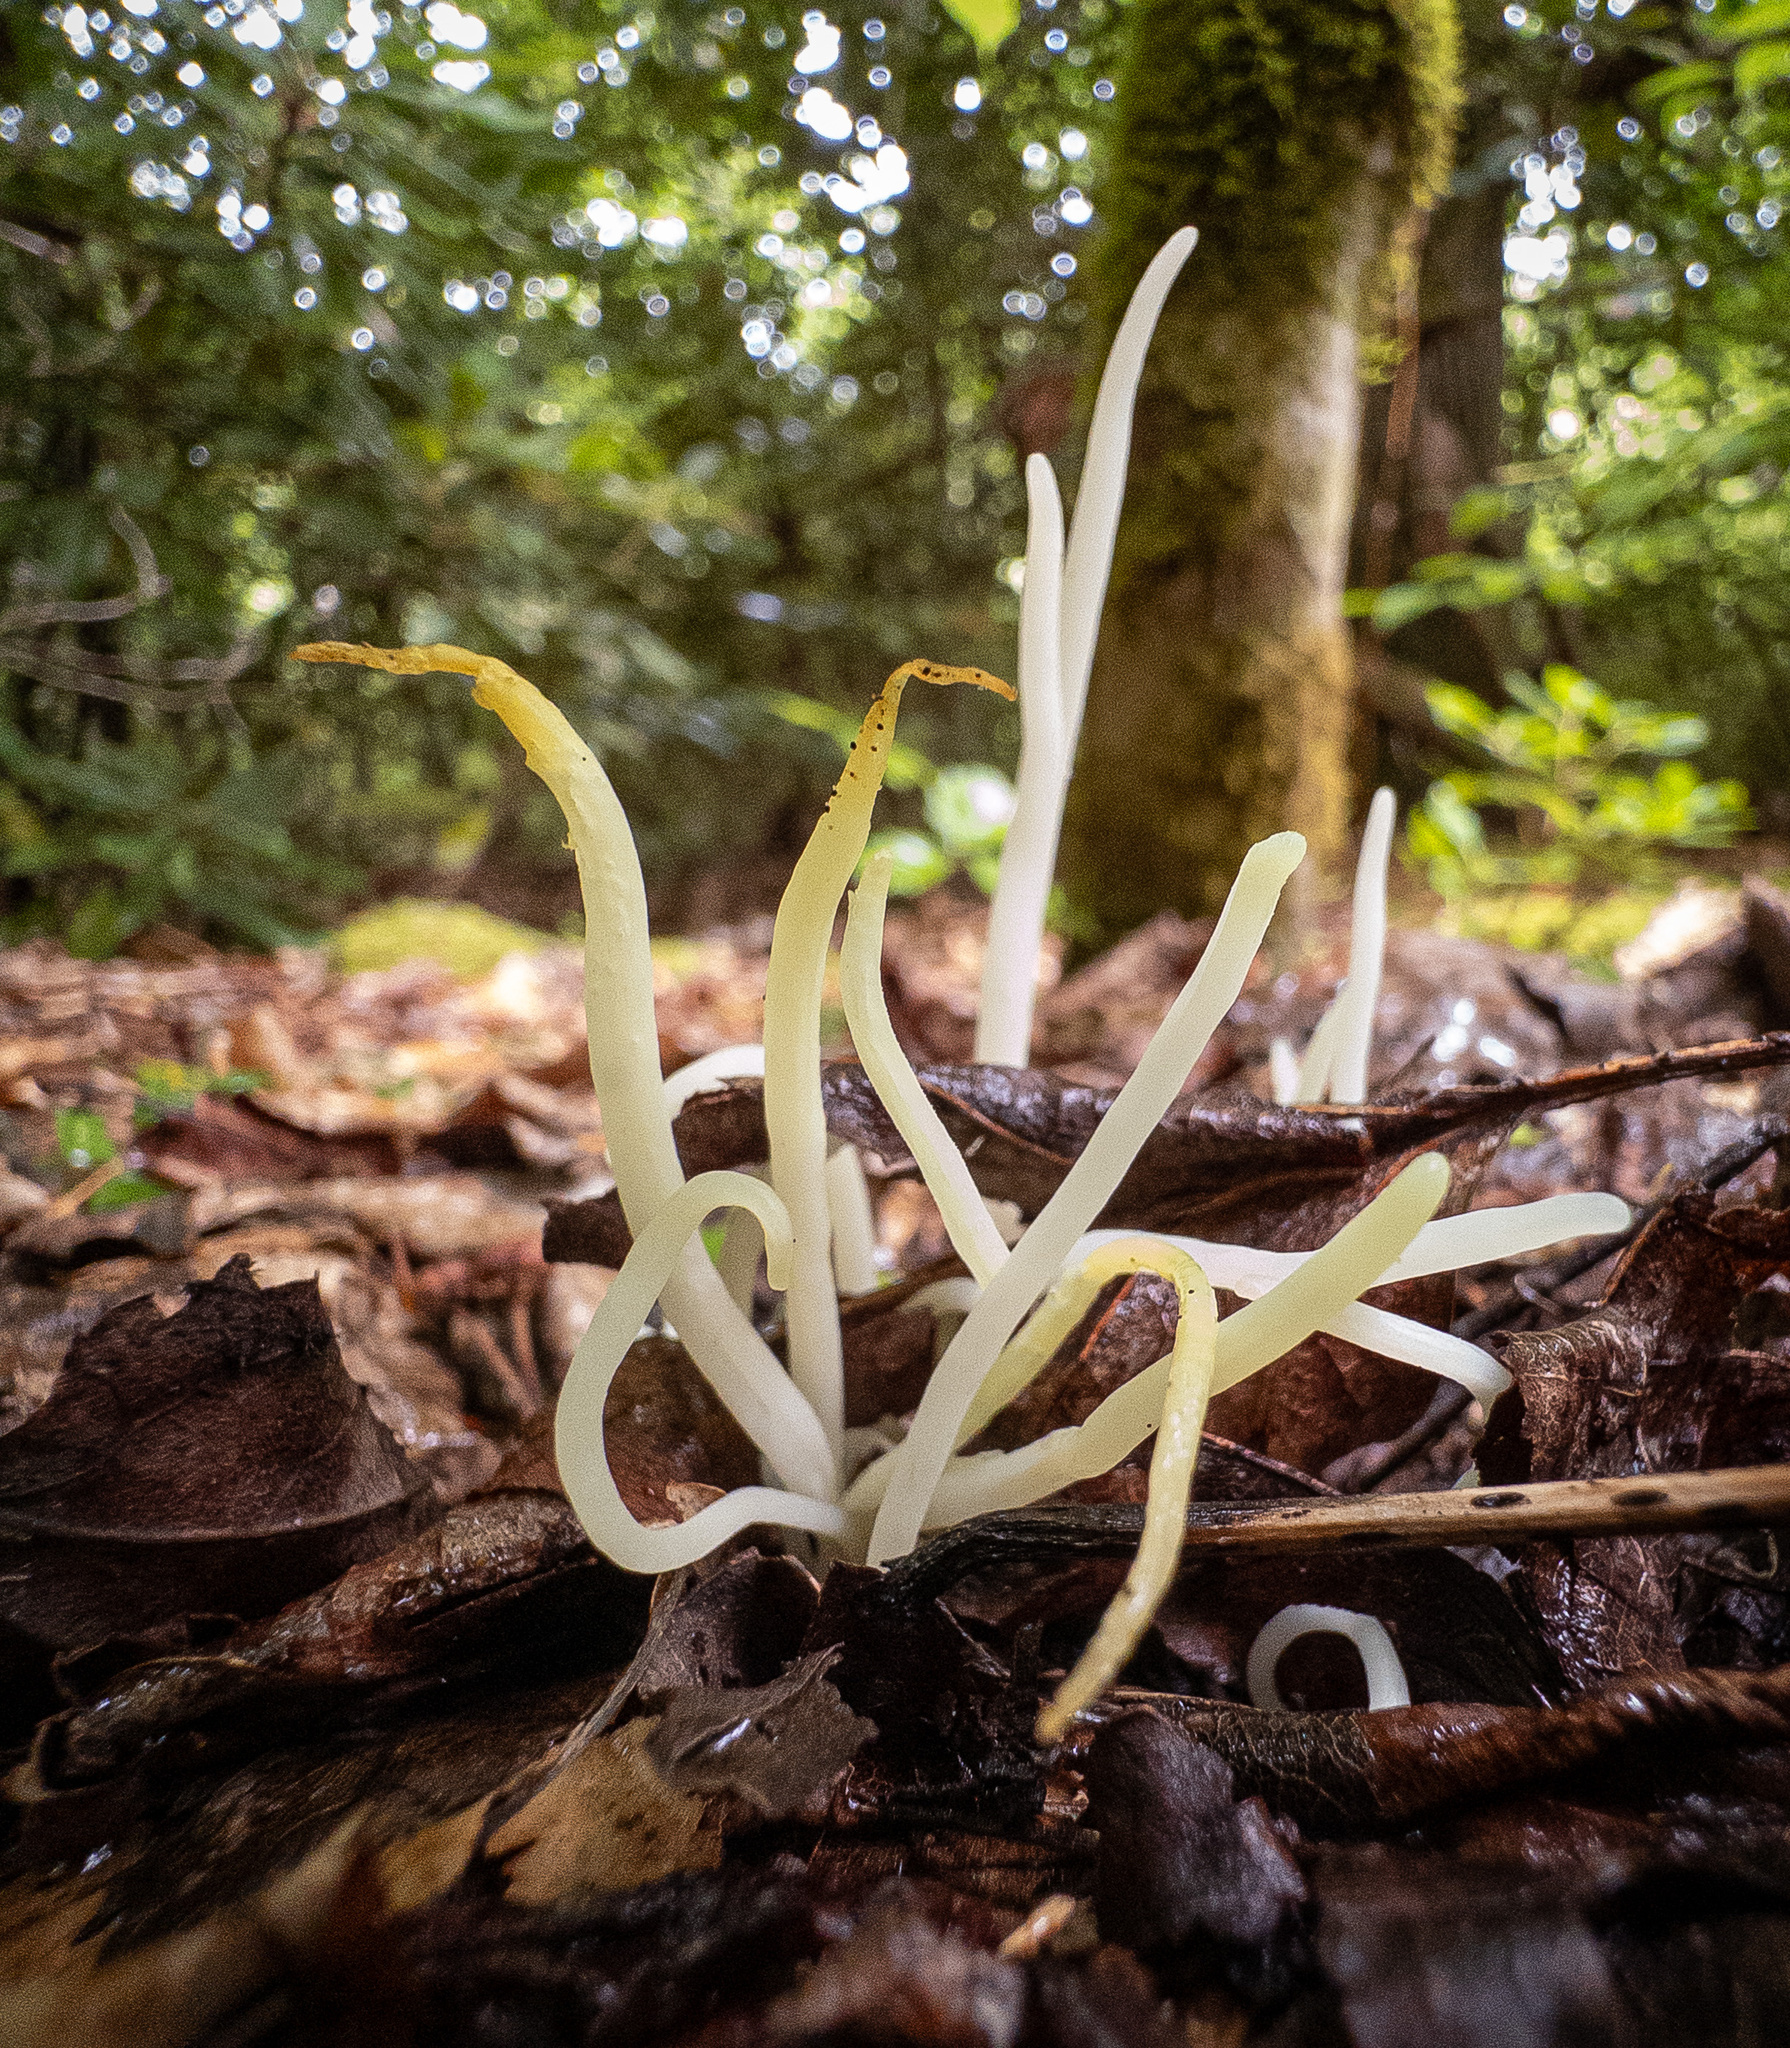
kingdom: Fungi
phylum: Basidiomycota
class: Agaricomycetes
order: Agaricales
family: Clavariaceae
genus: Clavaria
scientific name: Clavaria fragilis
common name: White spindles
